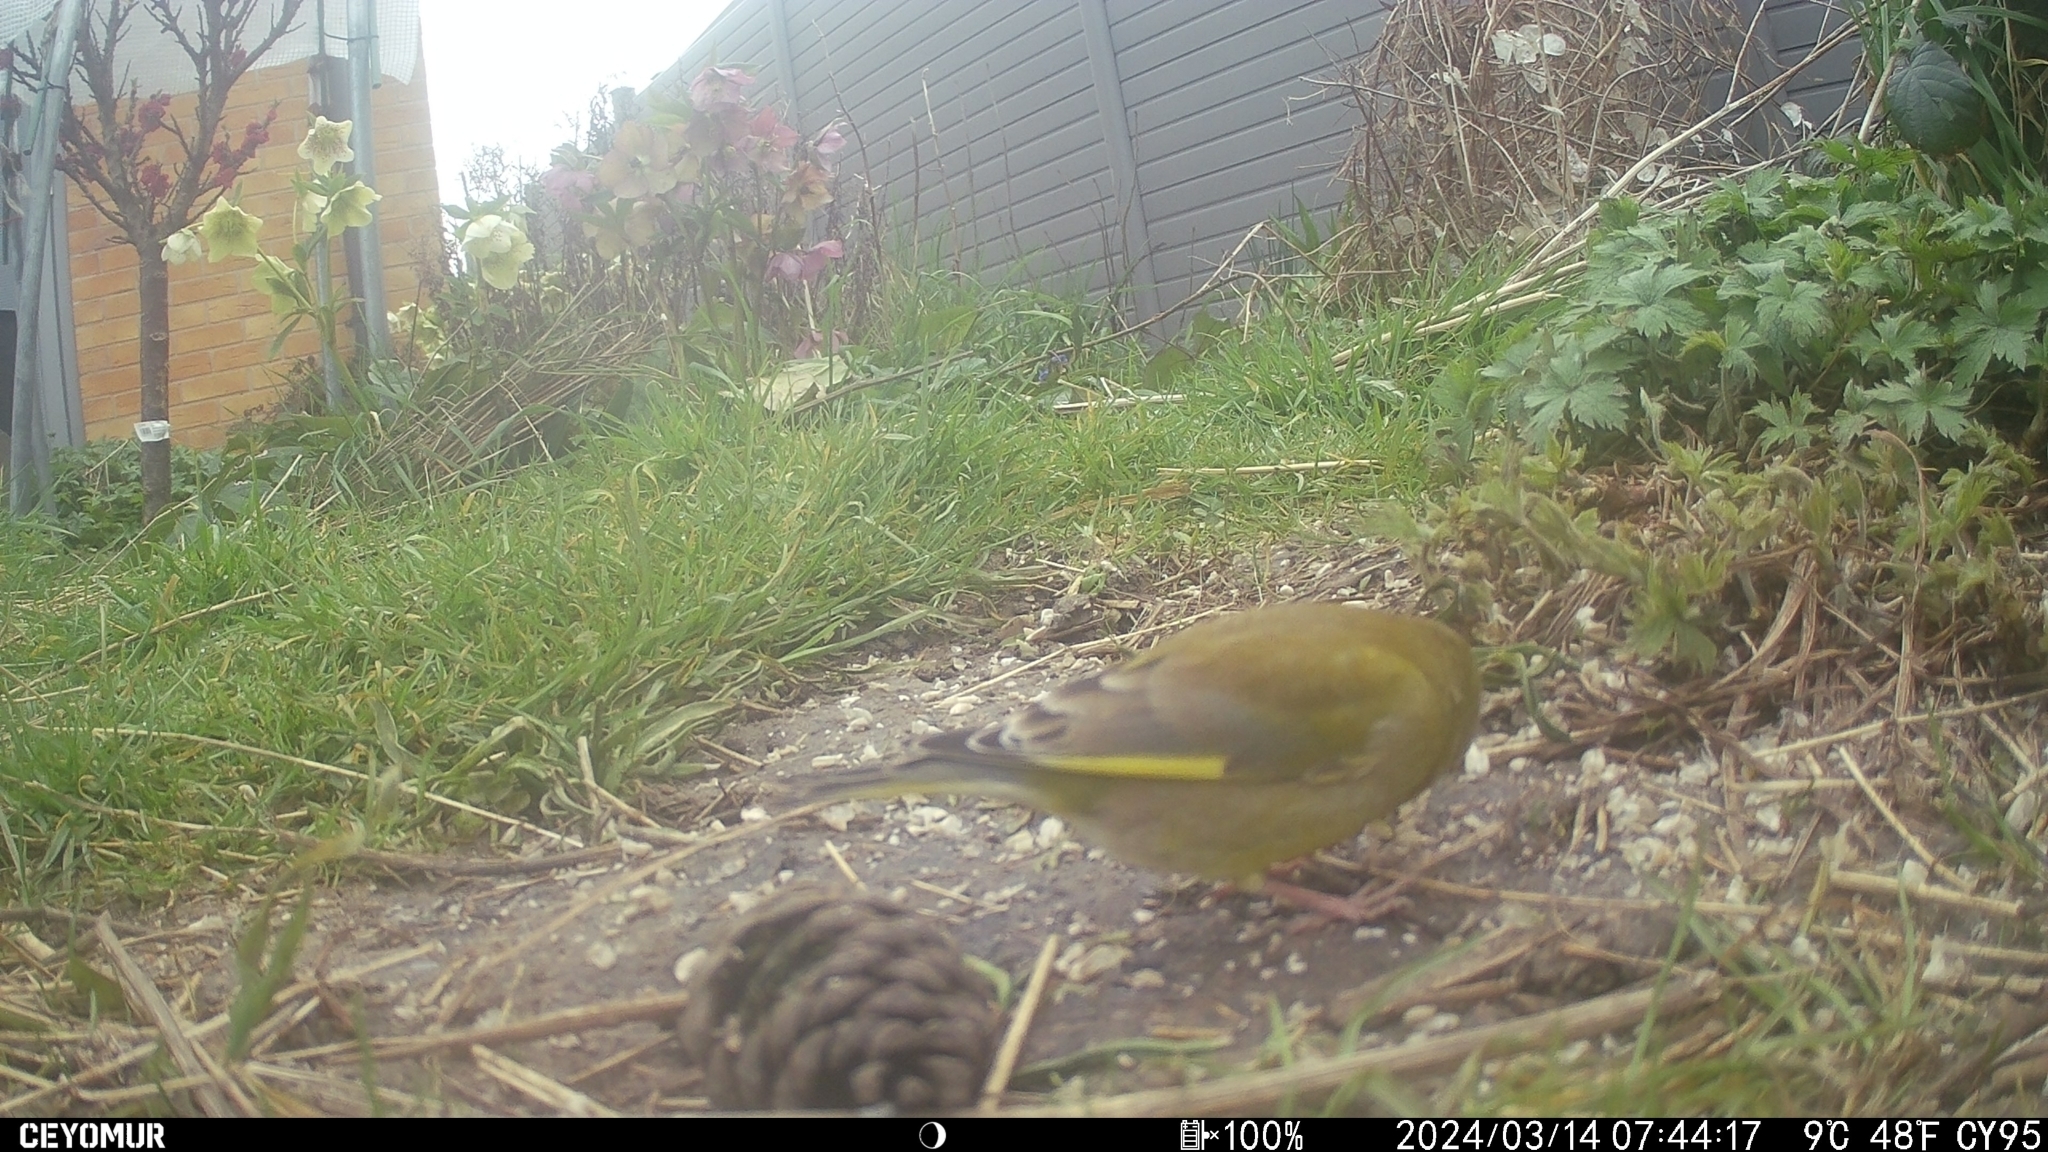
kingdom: Plantae
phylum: Tracheophyta
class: Liliopsida
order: Poales
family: Poaceae
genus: Chloris
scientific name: Chloris chloris
